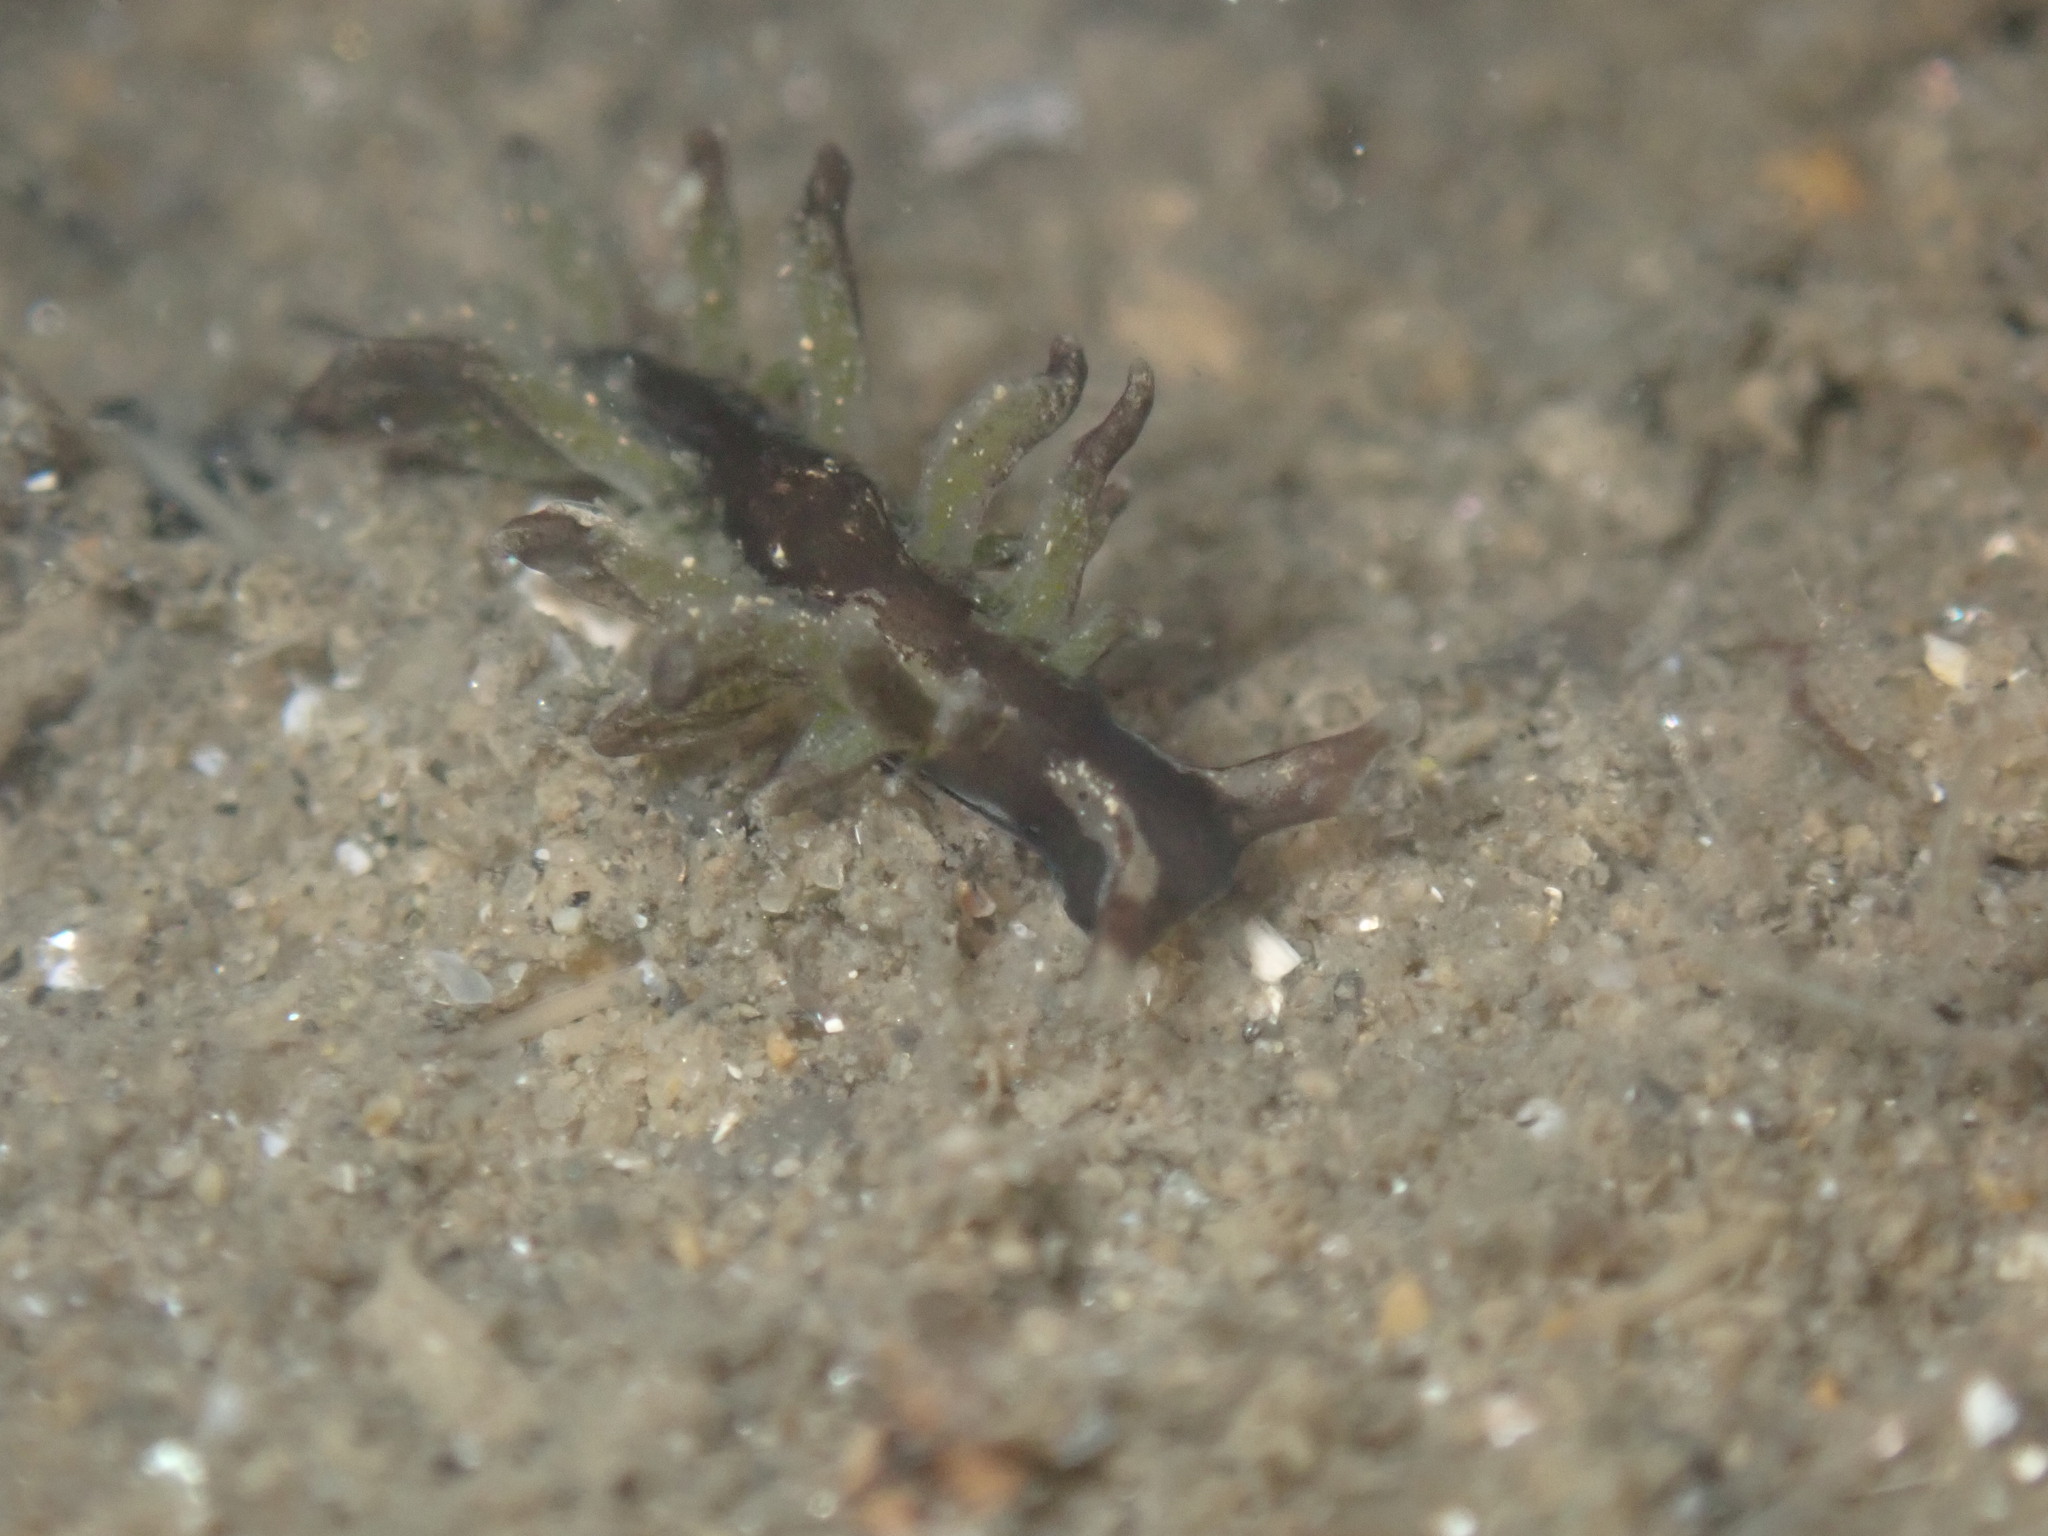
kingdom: Animalia
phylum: Mollusca
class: Gastropoda
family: Hermaeidae
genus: Aplysiopsis
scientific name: Aplysiopsis enteromorphae
